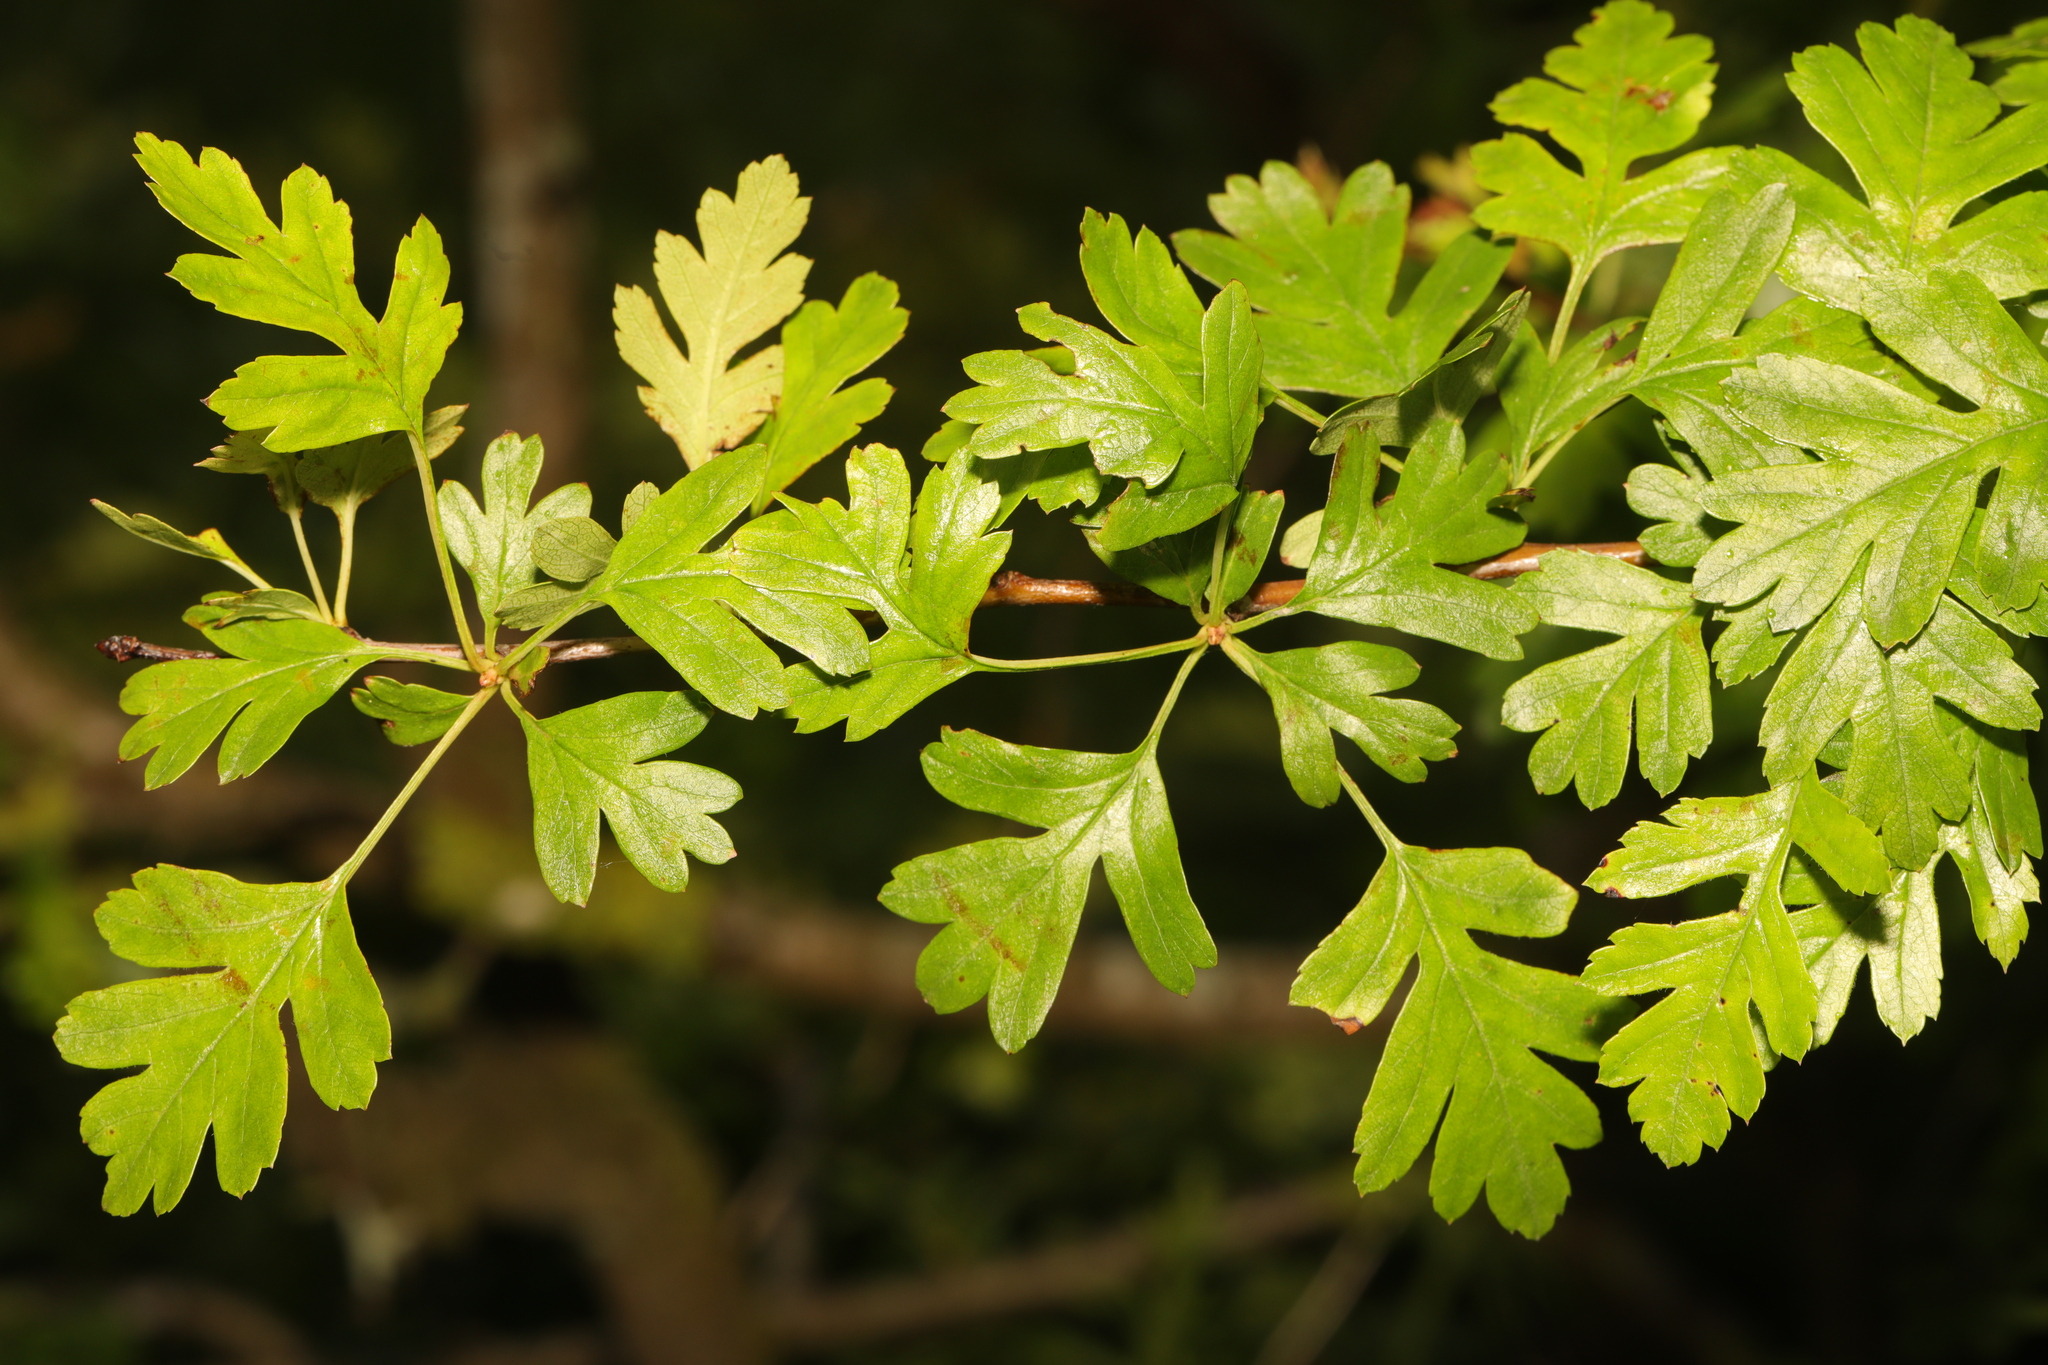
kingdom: Plantae
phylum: Tracheophyta
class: Magnoliopsida
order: Rosales
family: Rosaceae
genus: Crataegus
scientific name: Crataegus monogyna
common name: Hawthorn
